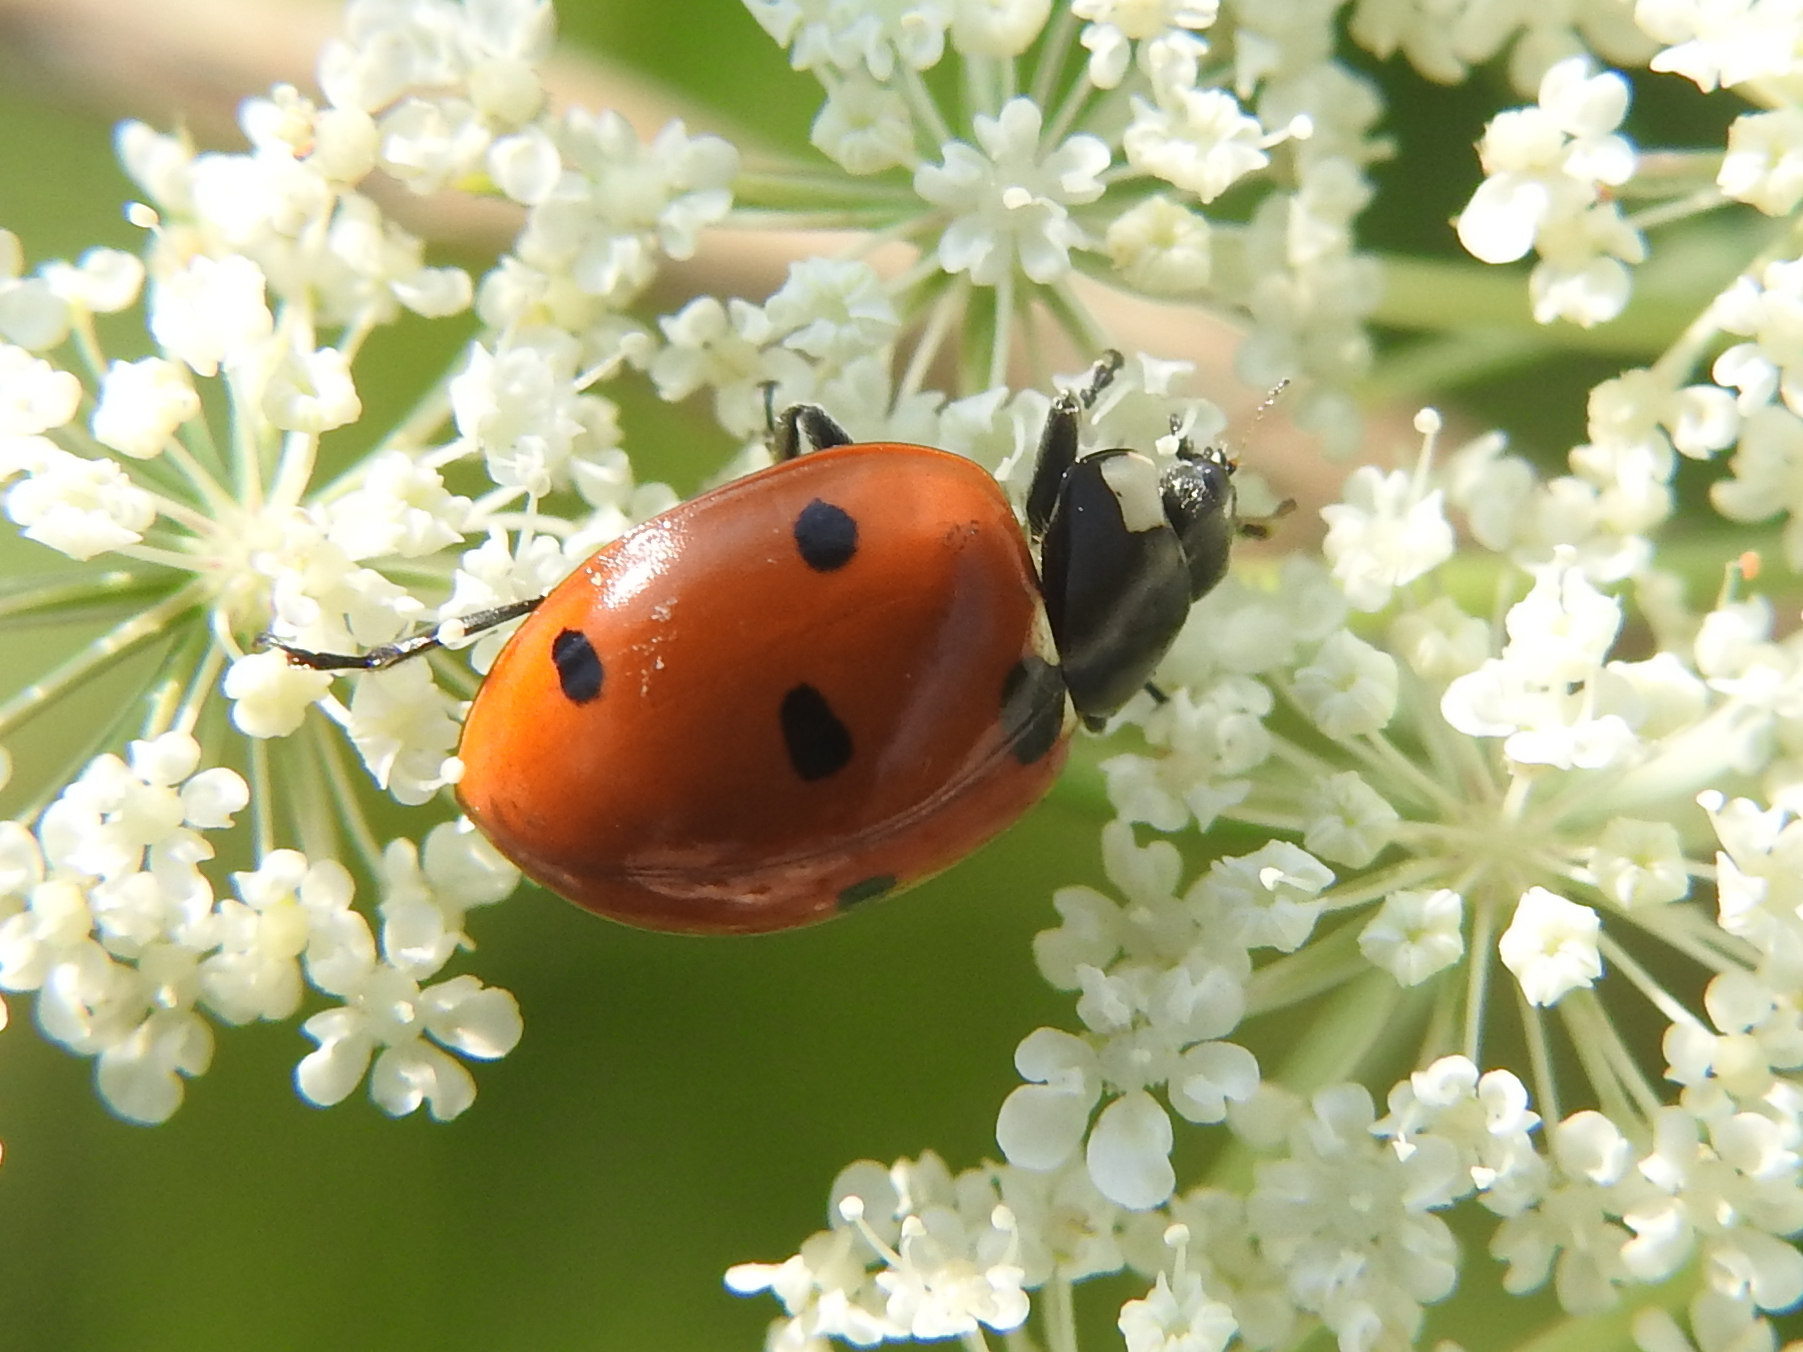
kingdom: Animalia
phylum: Arthropoda
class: Insecta
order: Coleoptera
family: Coccinellidae
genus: Coccinella
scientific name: Coccinella septempunctata
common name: Sevenspotted lady beetle
